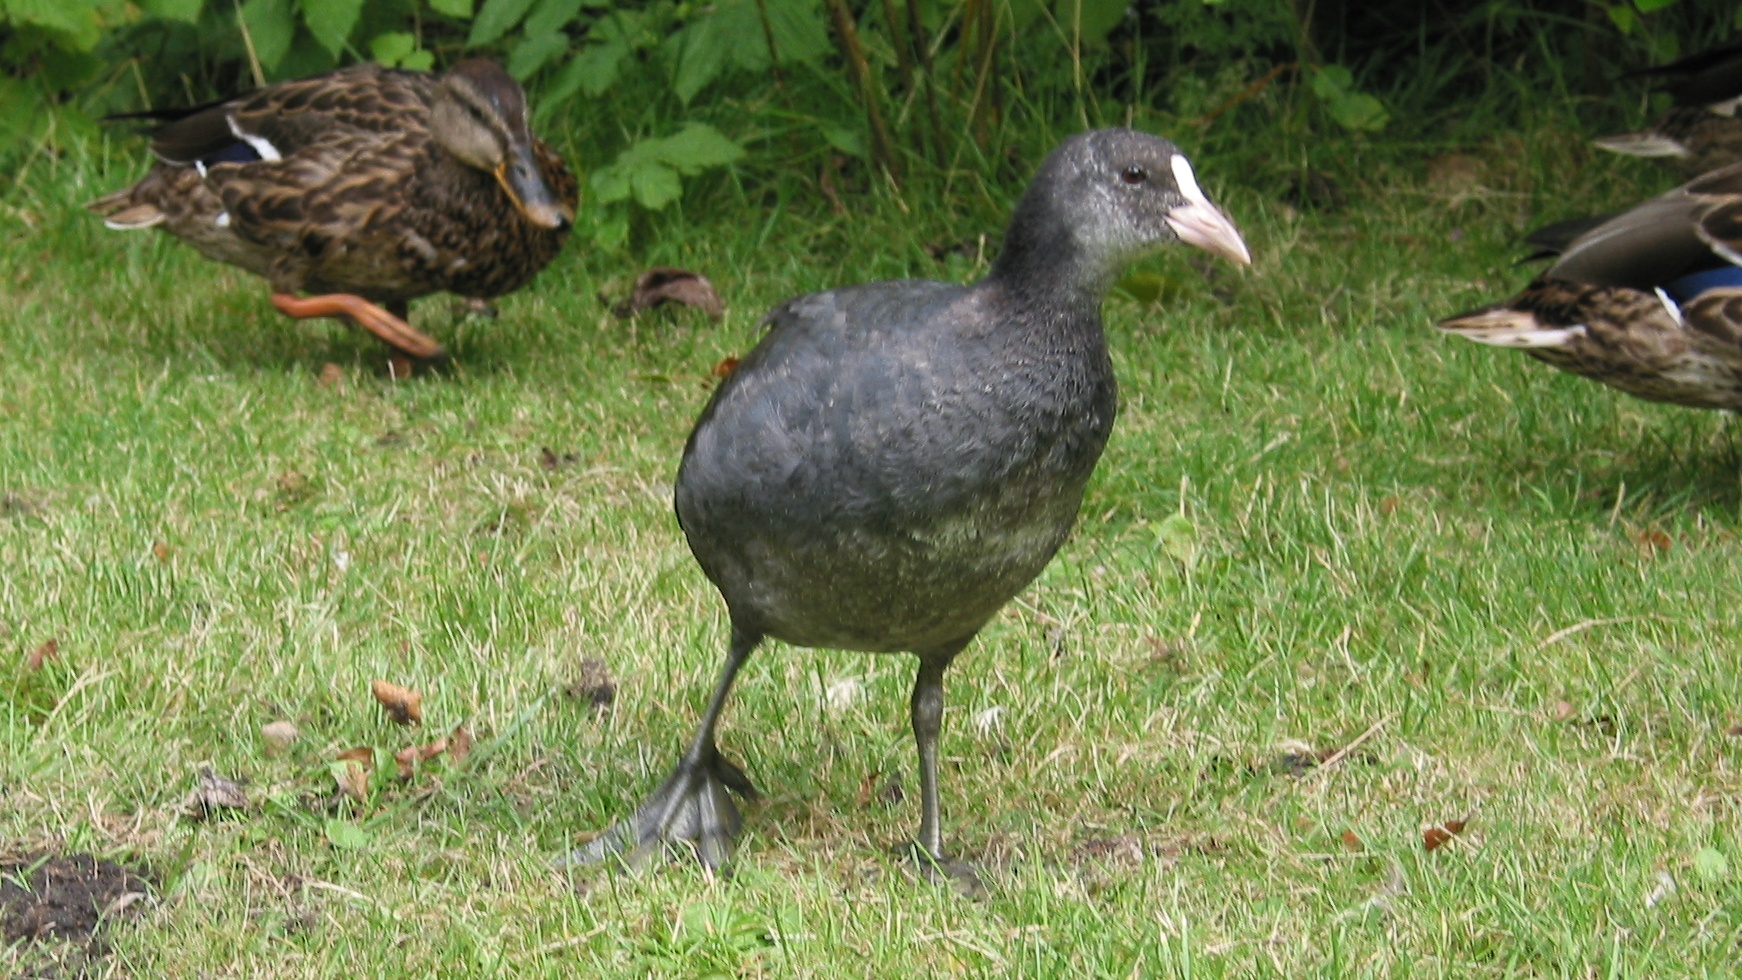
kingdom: Animalia
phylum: Chordata
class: Aves
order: Gruiformes
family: Rallidae
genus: Fulica
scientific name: Fulica atra
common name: Eurasian coot
